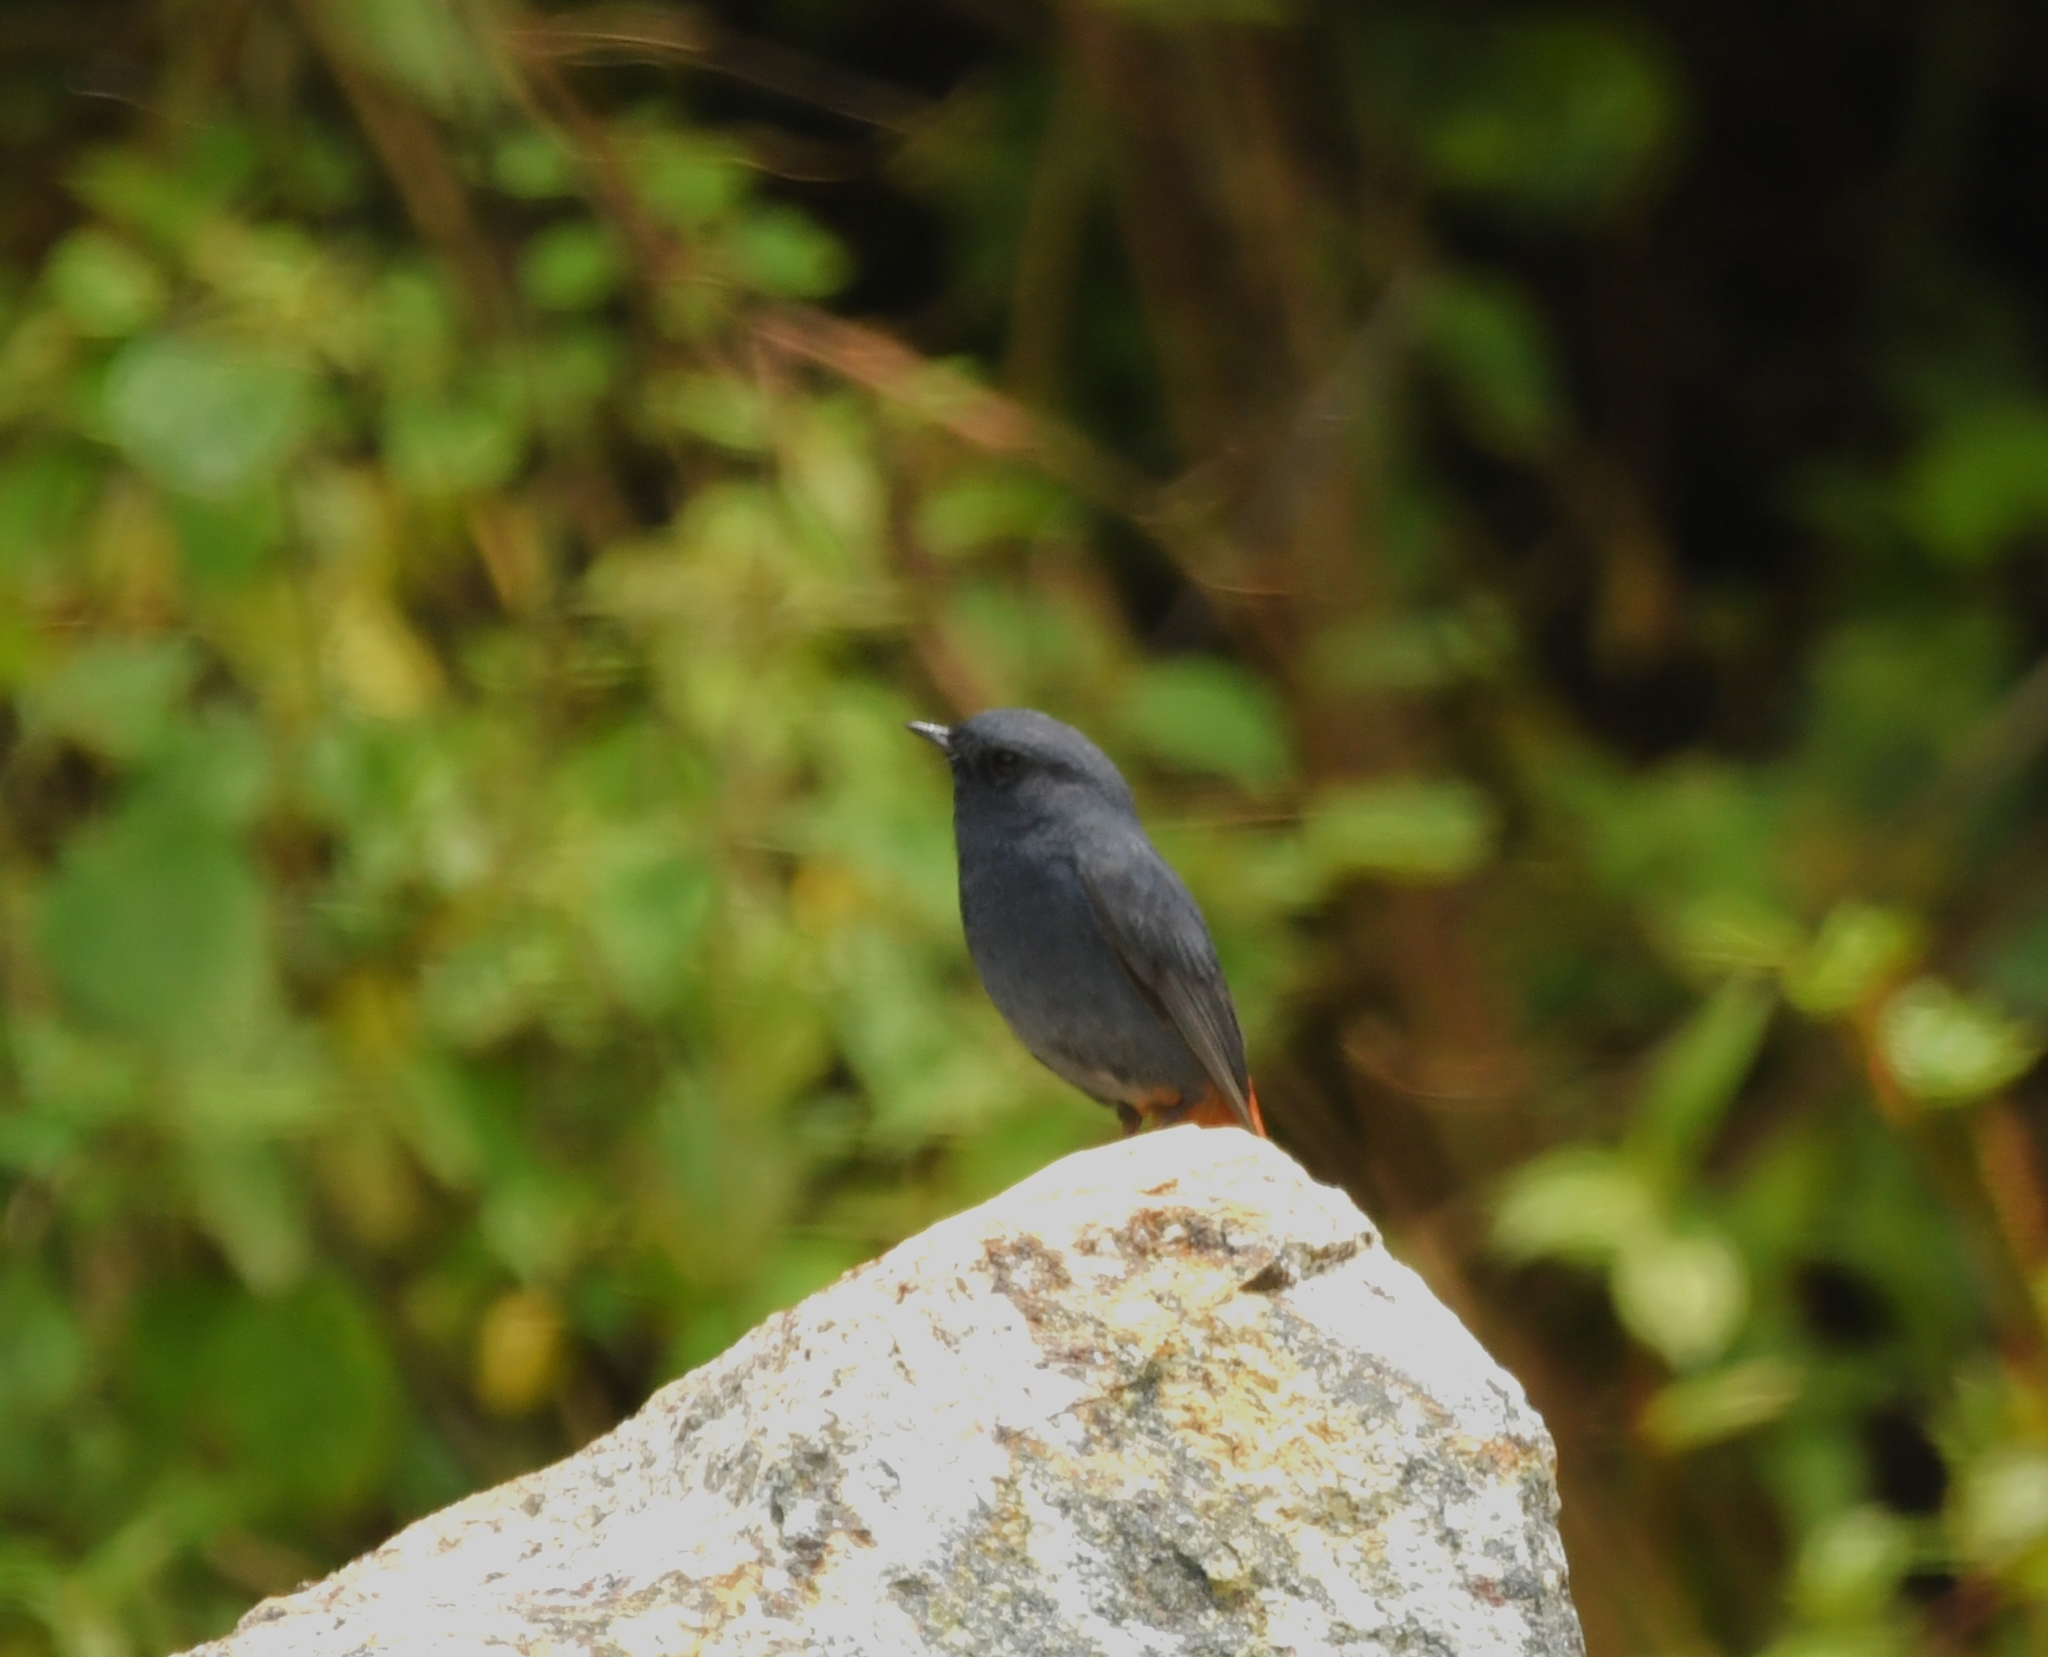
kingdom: Animalia
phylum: Chordata
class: Aves
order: Passeriformes
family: Muscicapidae
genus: Phoenicurus
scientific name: Phoenicurus fuliginosus
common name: Plumbeous water redstart
